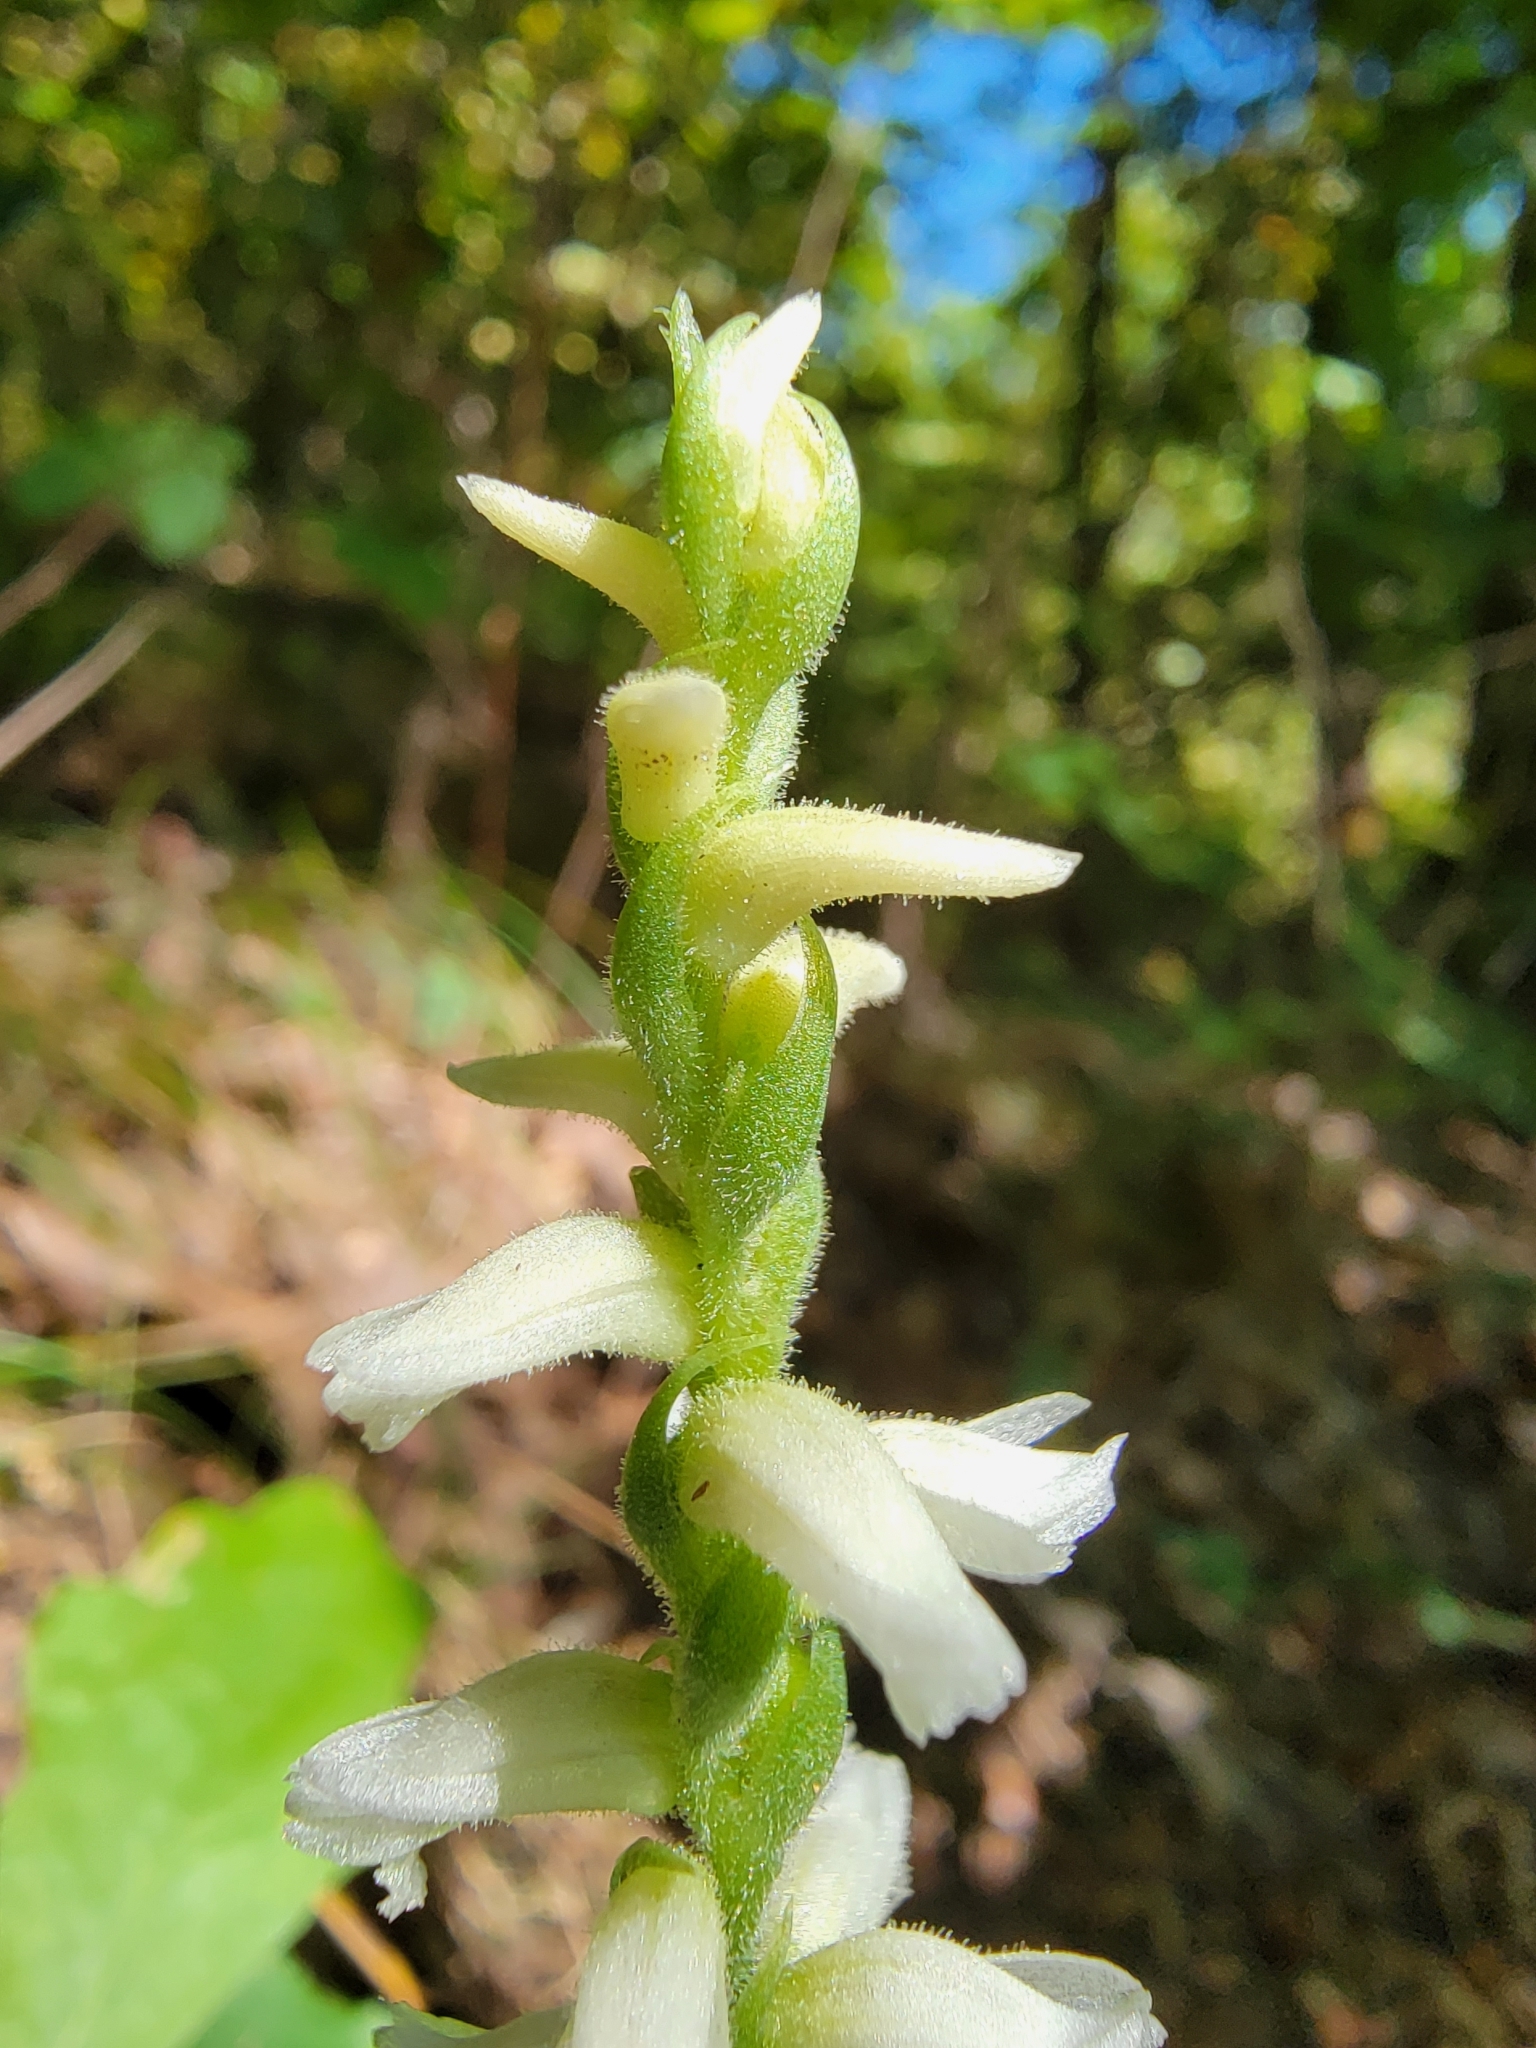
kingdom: Plantae
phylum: Tracheophyta
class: Liliopsida
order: Asparagales
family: Orchidaceae
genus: Spiranthes
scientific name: Spiranthes ochroleuca
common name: Yellow ladies'-tresses
